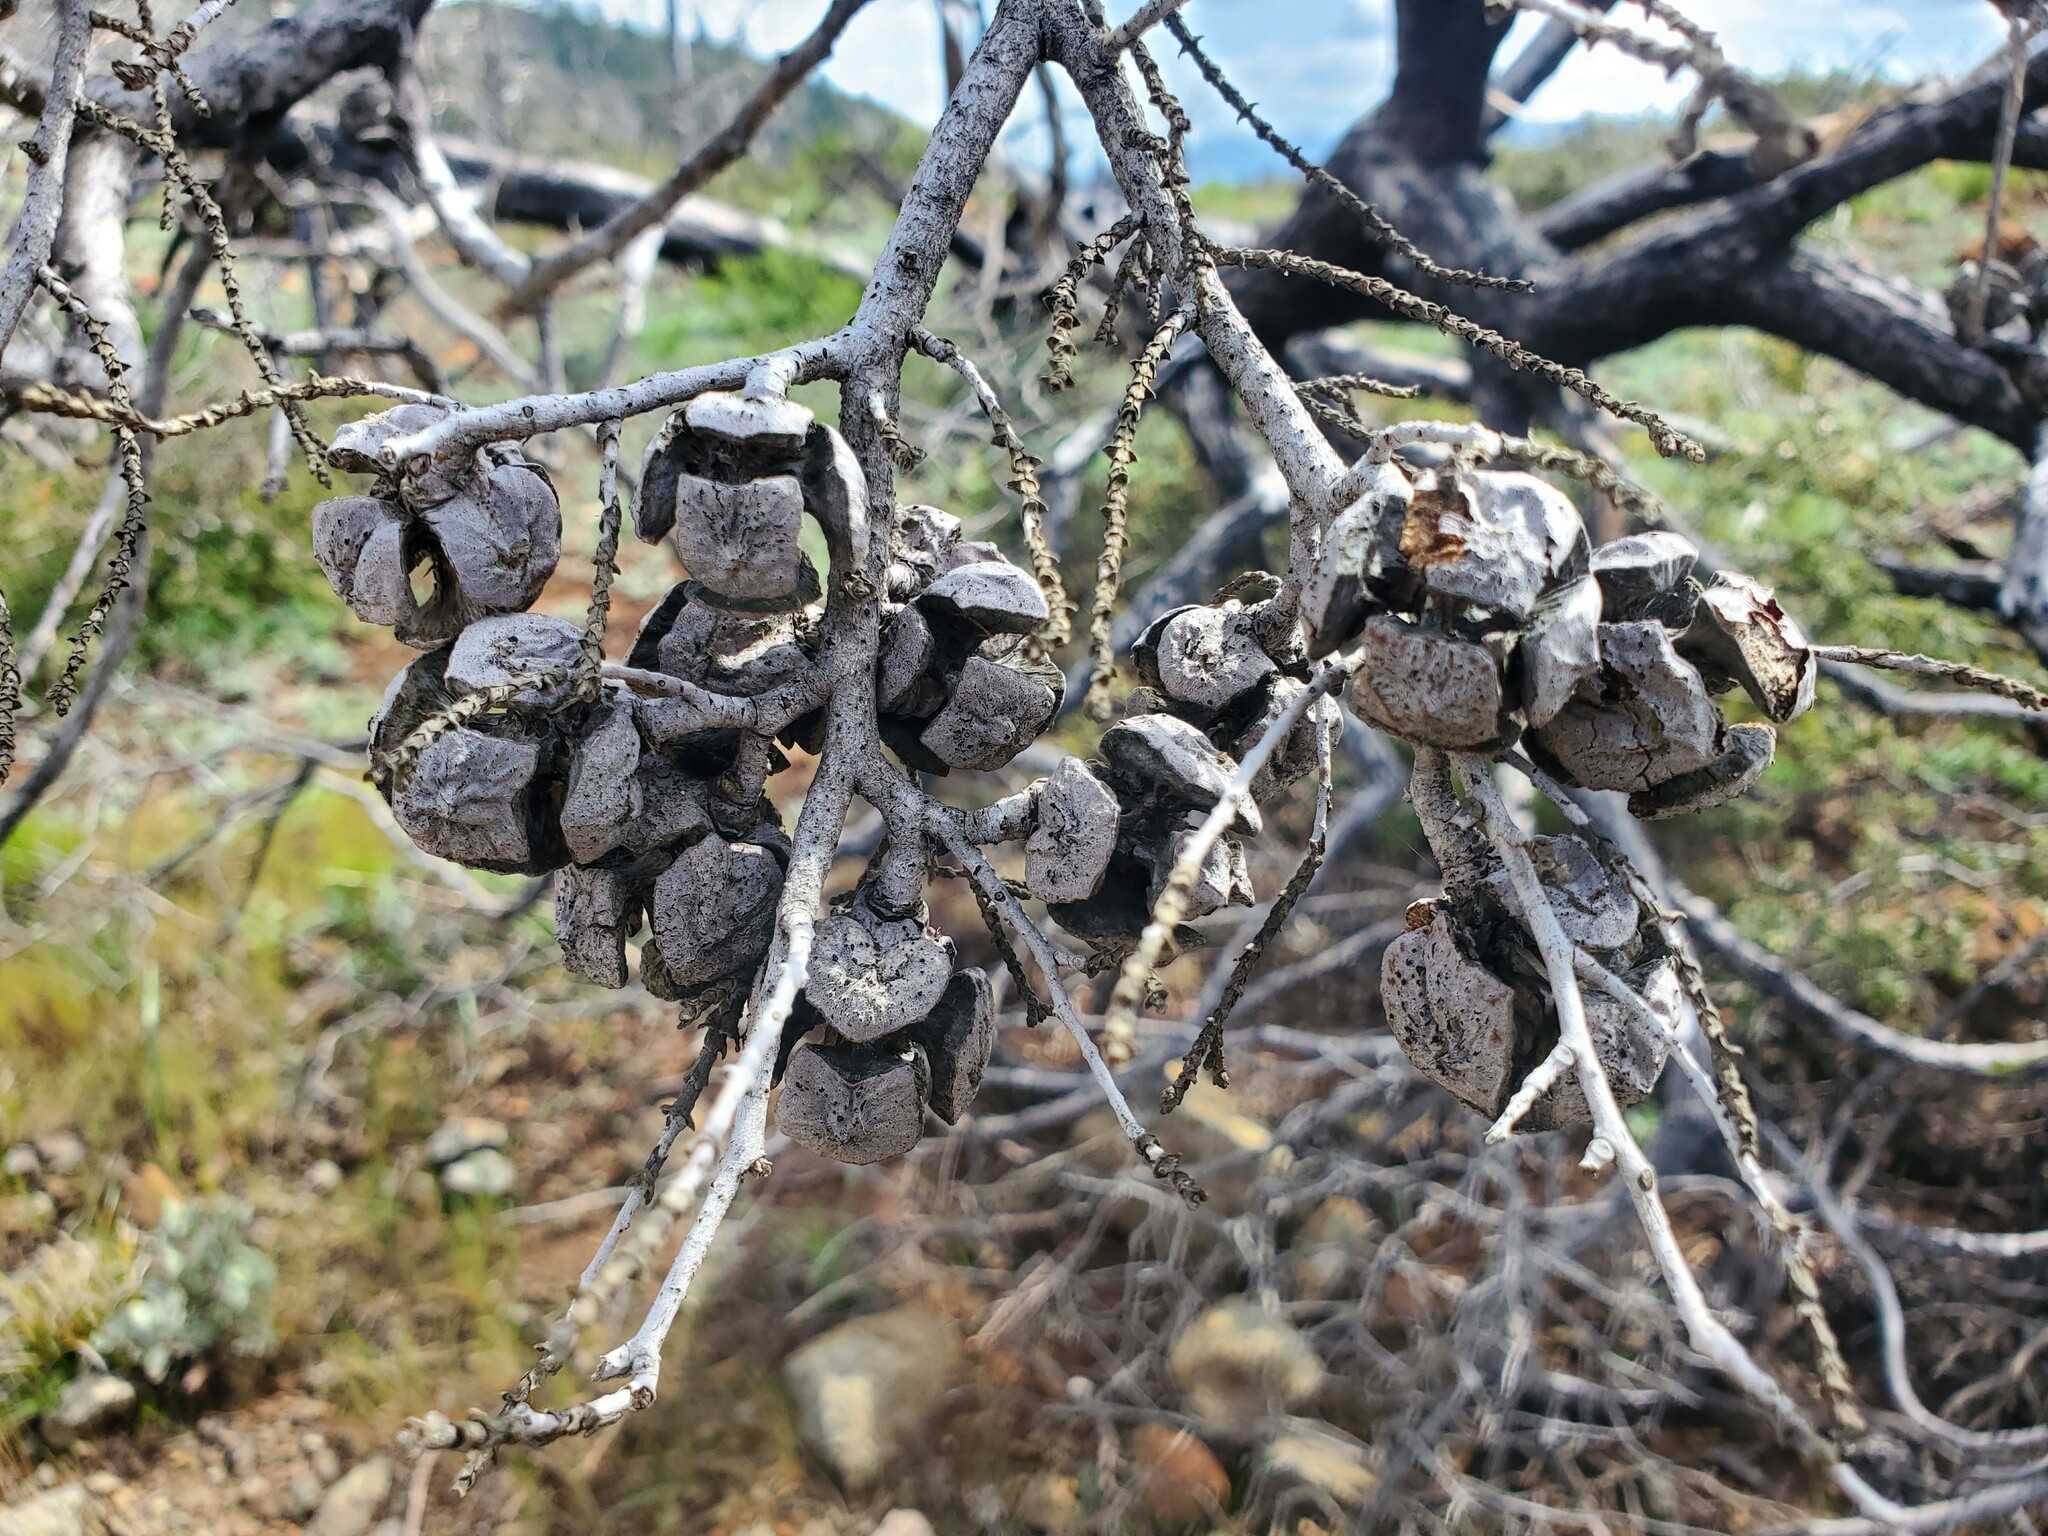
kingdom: Plantae
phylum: Tracheophyta
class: Pinopsida
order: Pinales
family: Cupressaceae
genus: Cupressus
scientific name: Cupressus sargentii
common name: Sargent cypress
